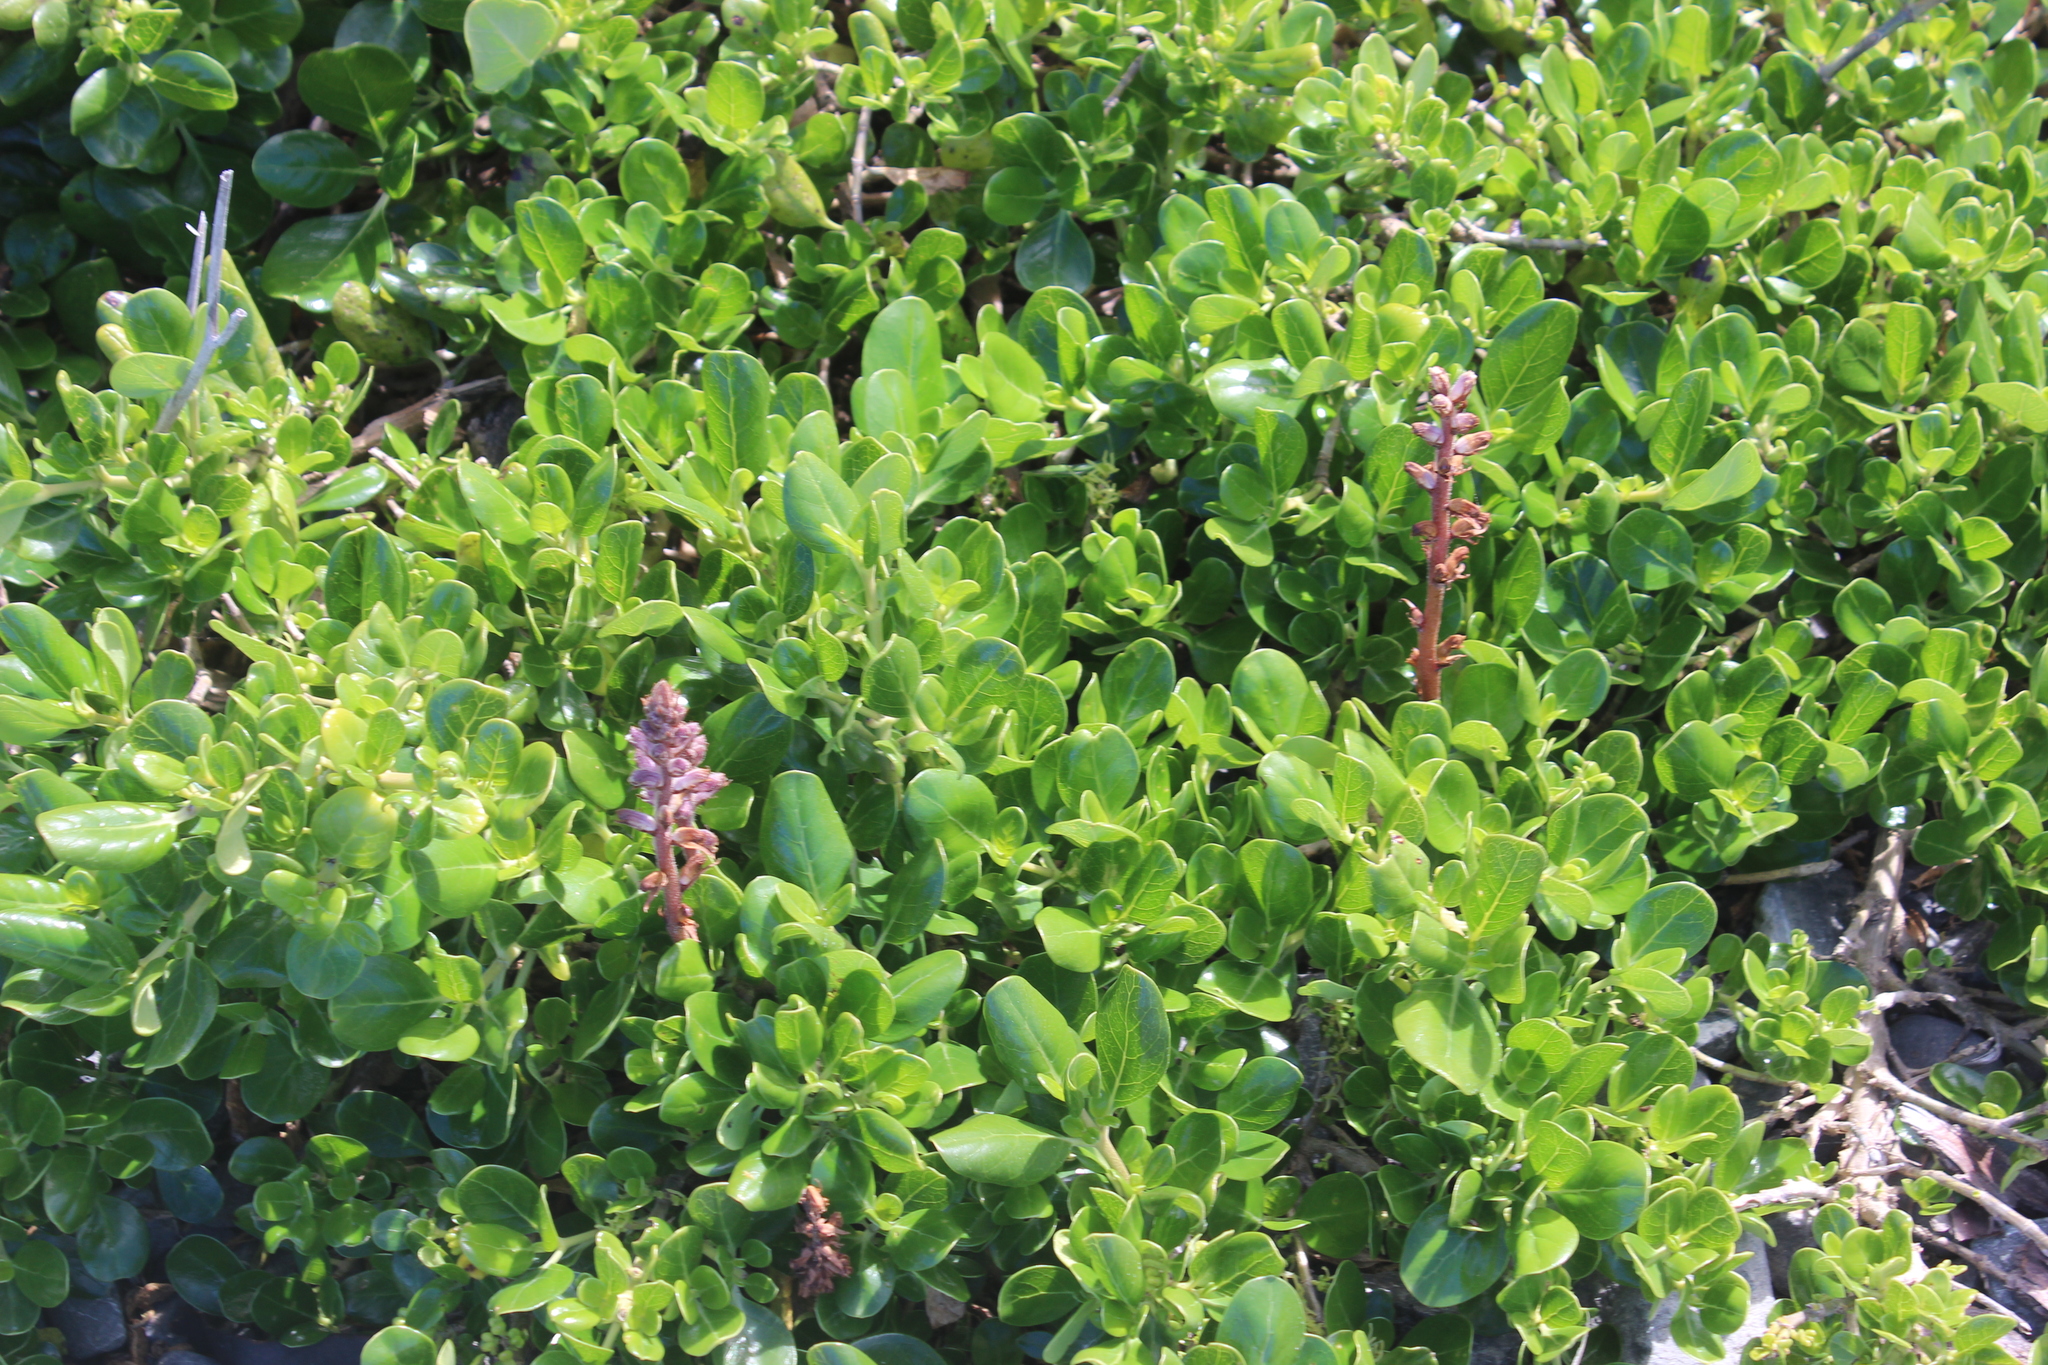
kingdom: Plantae
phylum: Tracheophyta
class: Magnoliopsida
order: Gentianales
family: Rubiaceae
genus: Coprosma
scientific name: Coprosma repens
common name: Tree bedstraw
